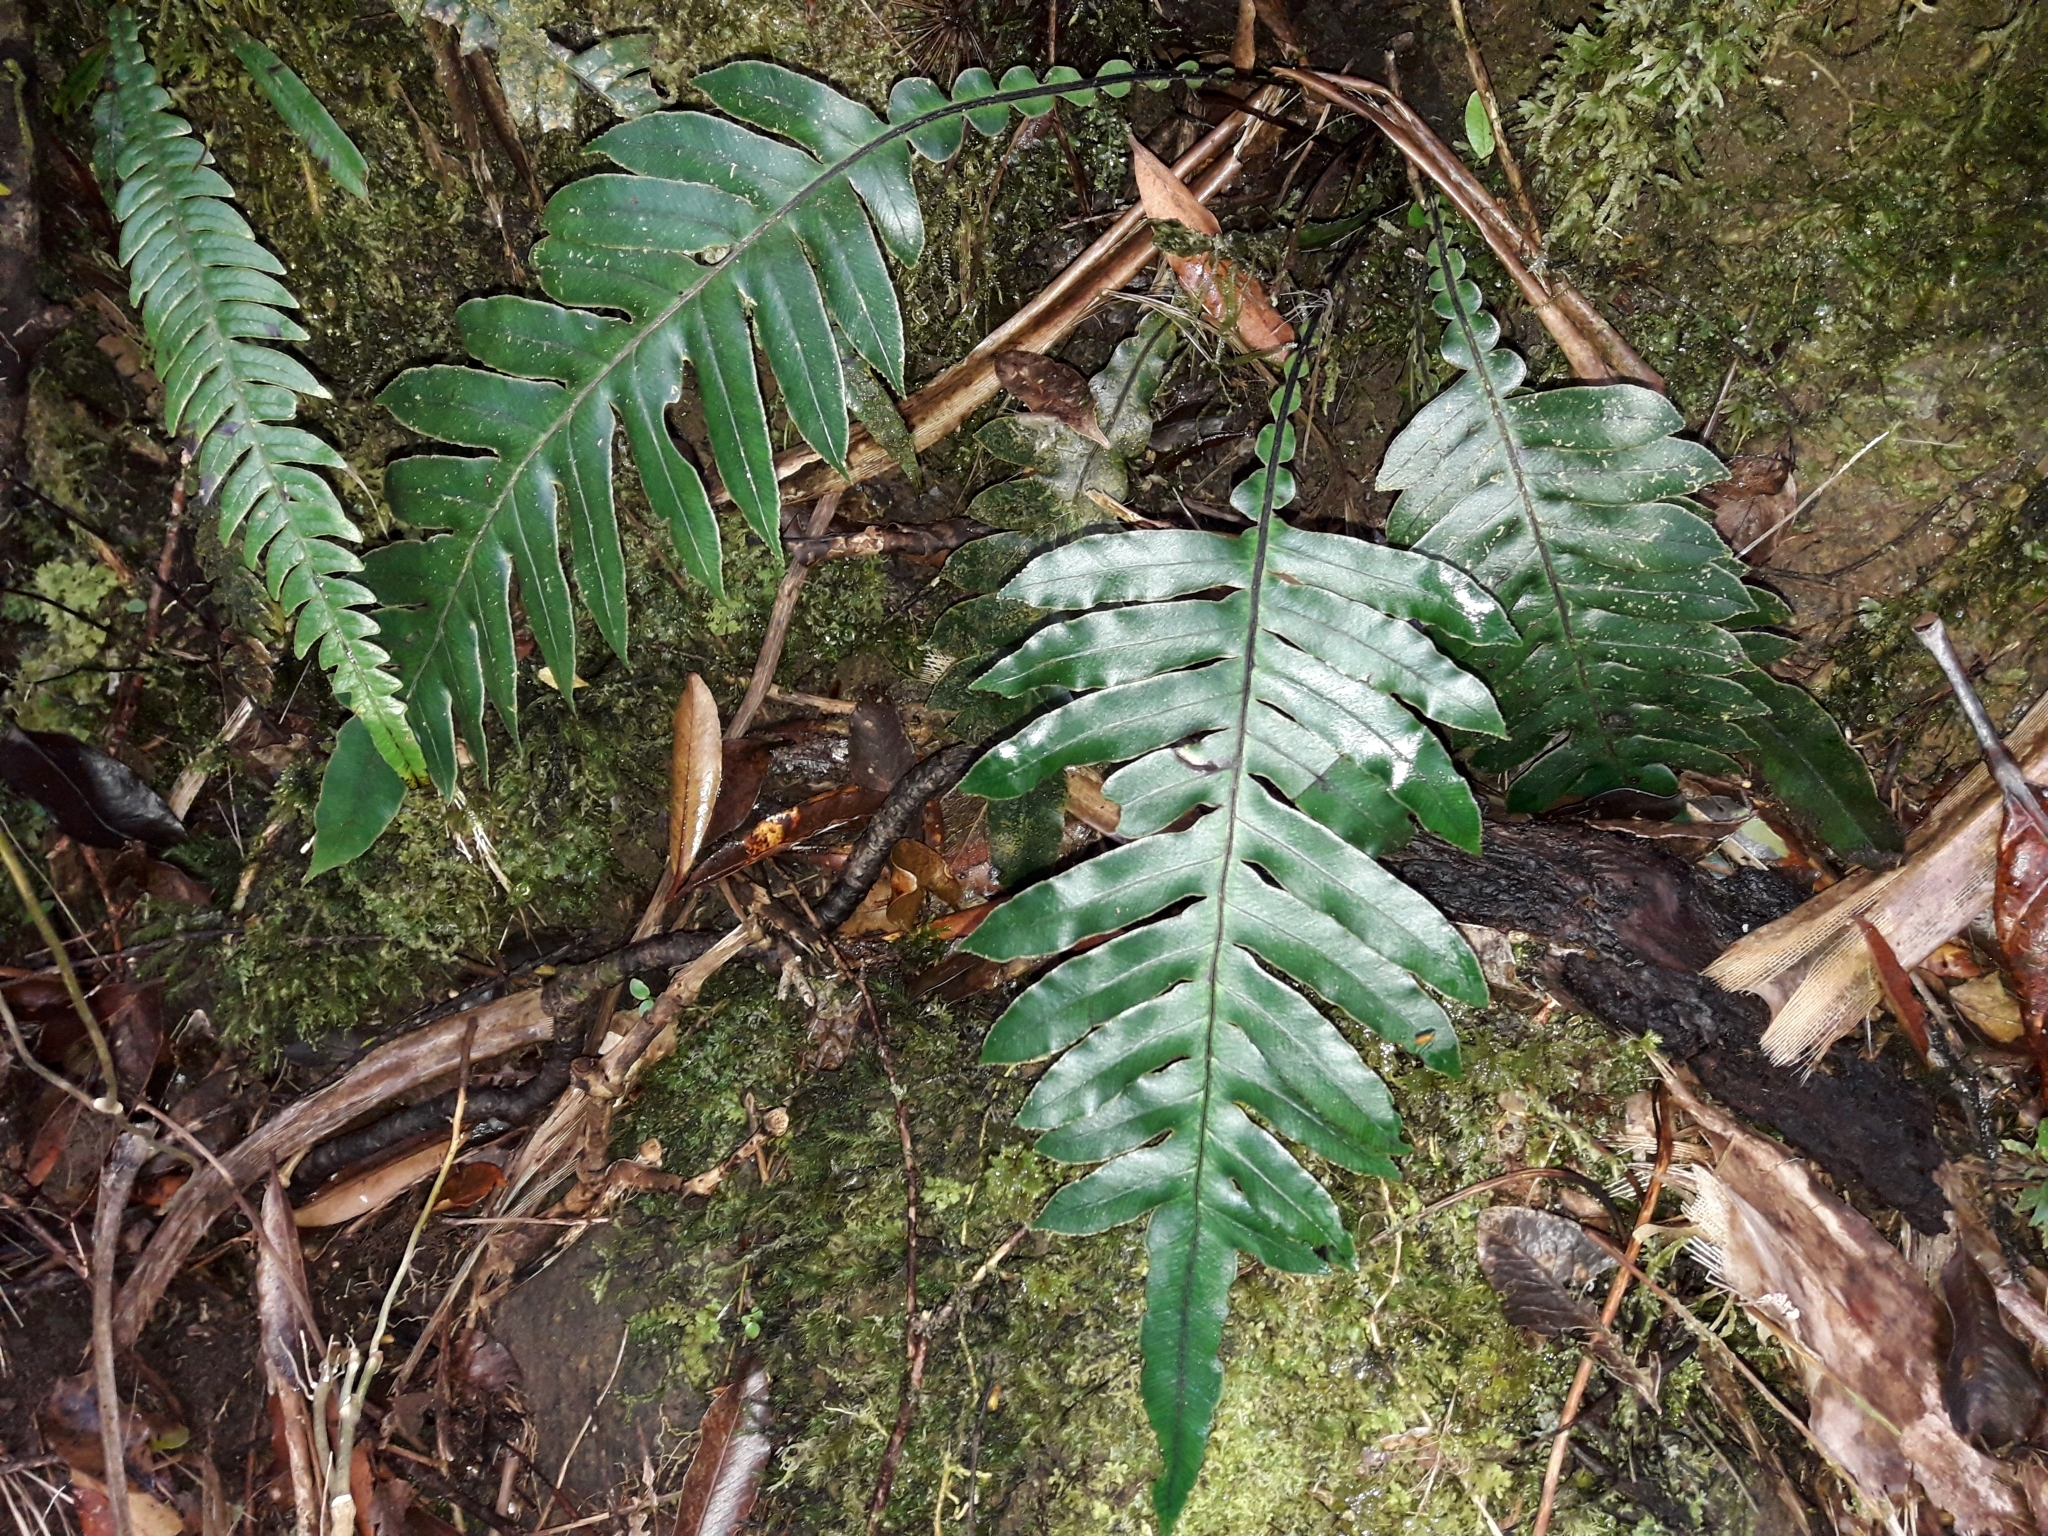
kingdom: Plantae
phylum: Tracheophyta
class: Polypodiopsida
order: Polypodiales
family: Blechnaceae
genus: Austroblechnum
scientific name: Austroblechnum vieillardii
